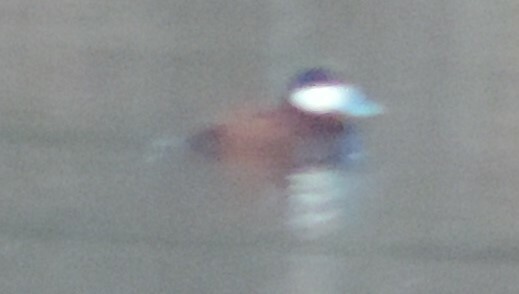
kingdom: Animalia
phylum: Chordata
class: Aves
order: Anseriformes
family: Anatidae
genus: Oxyura
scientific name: Oxyura jamaicensis
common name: Ruddy duck
